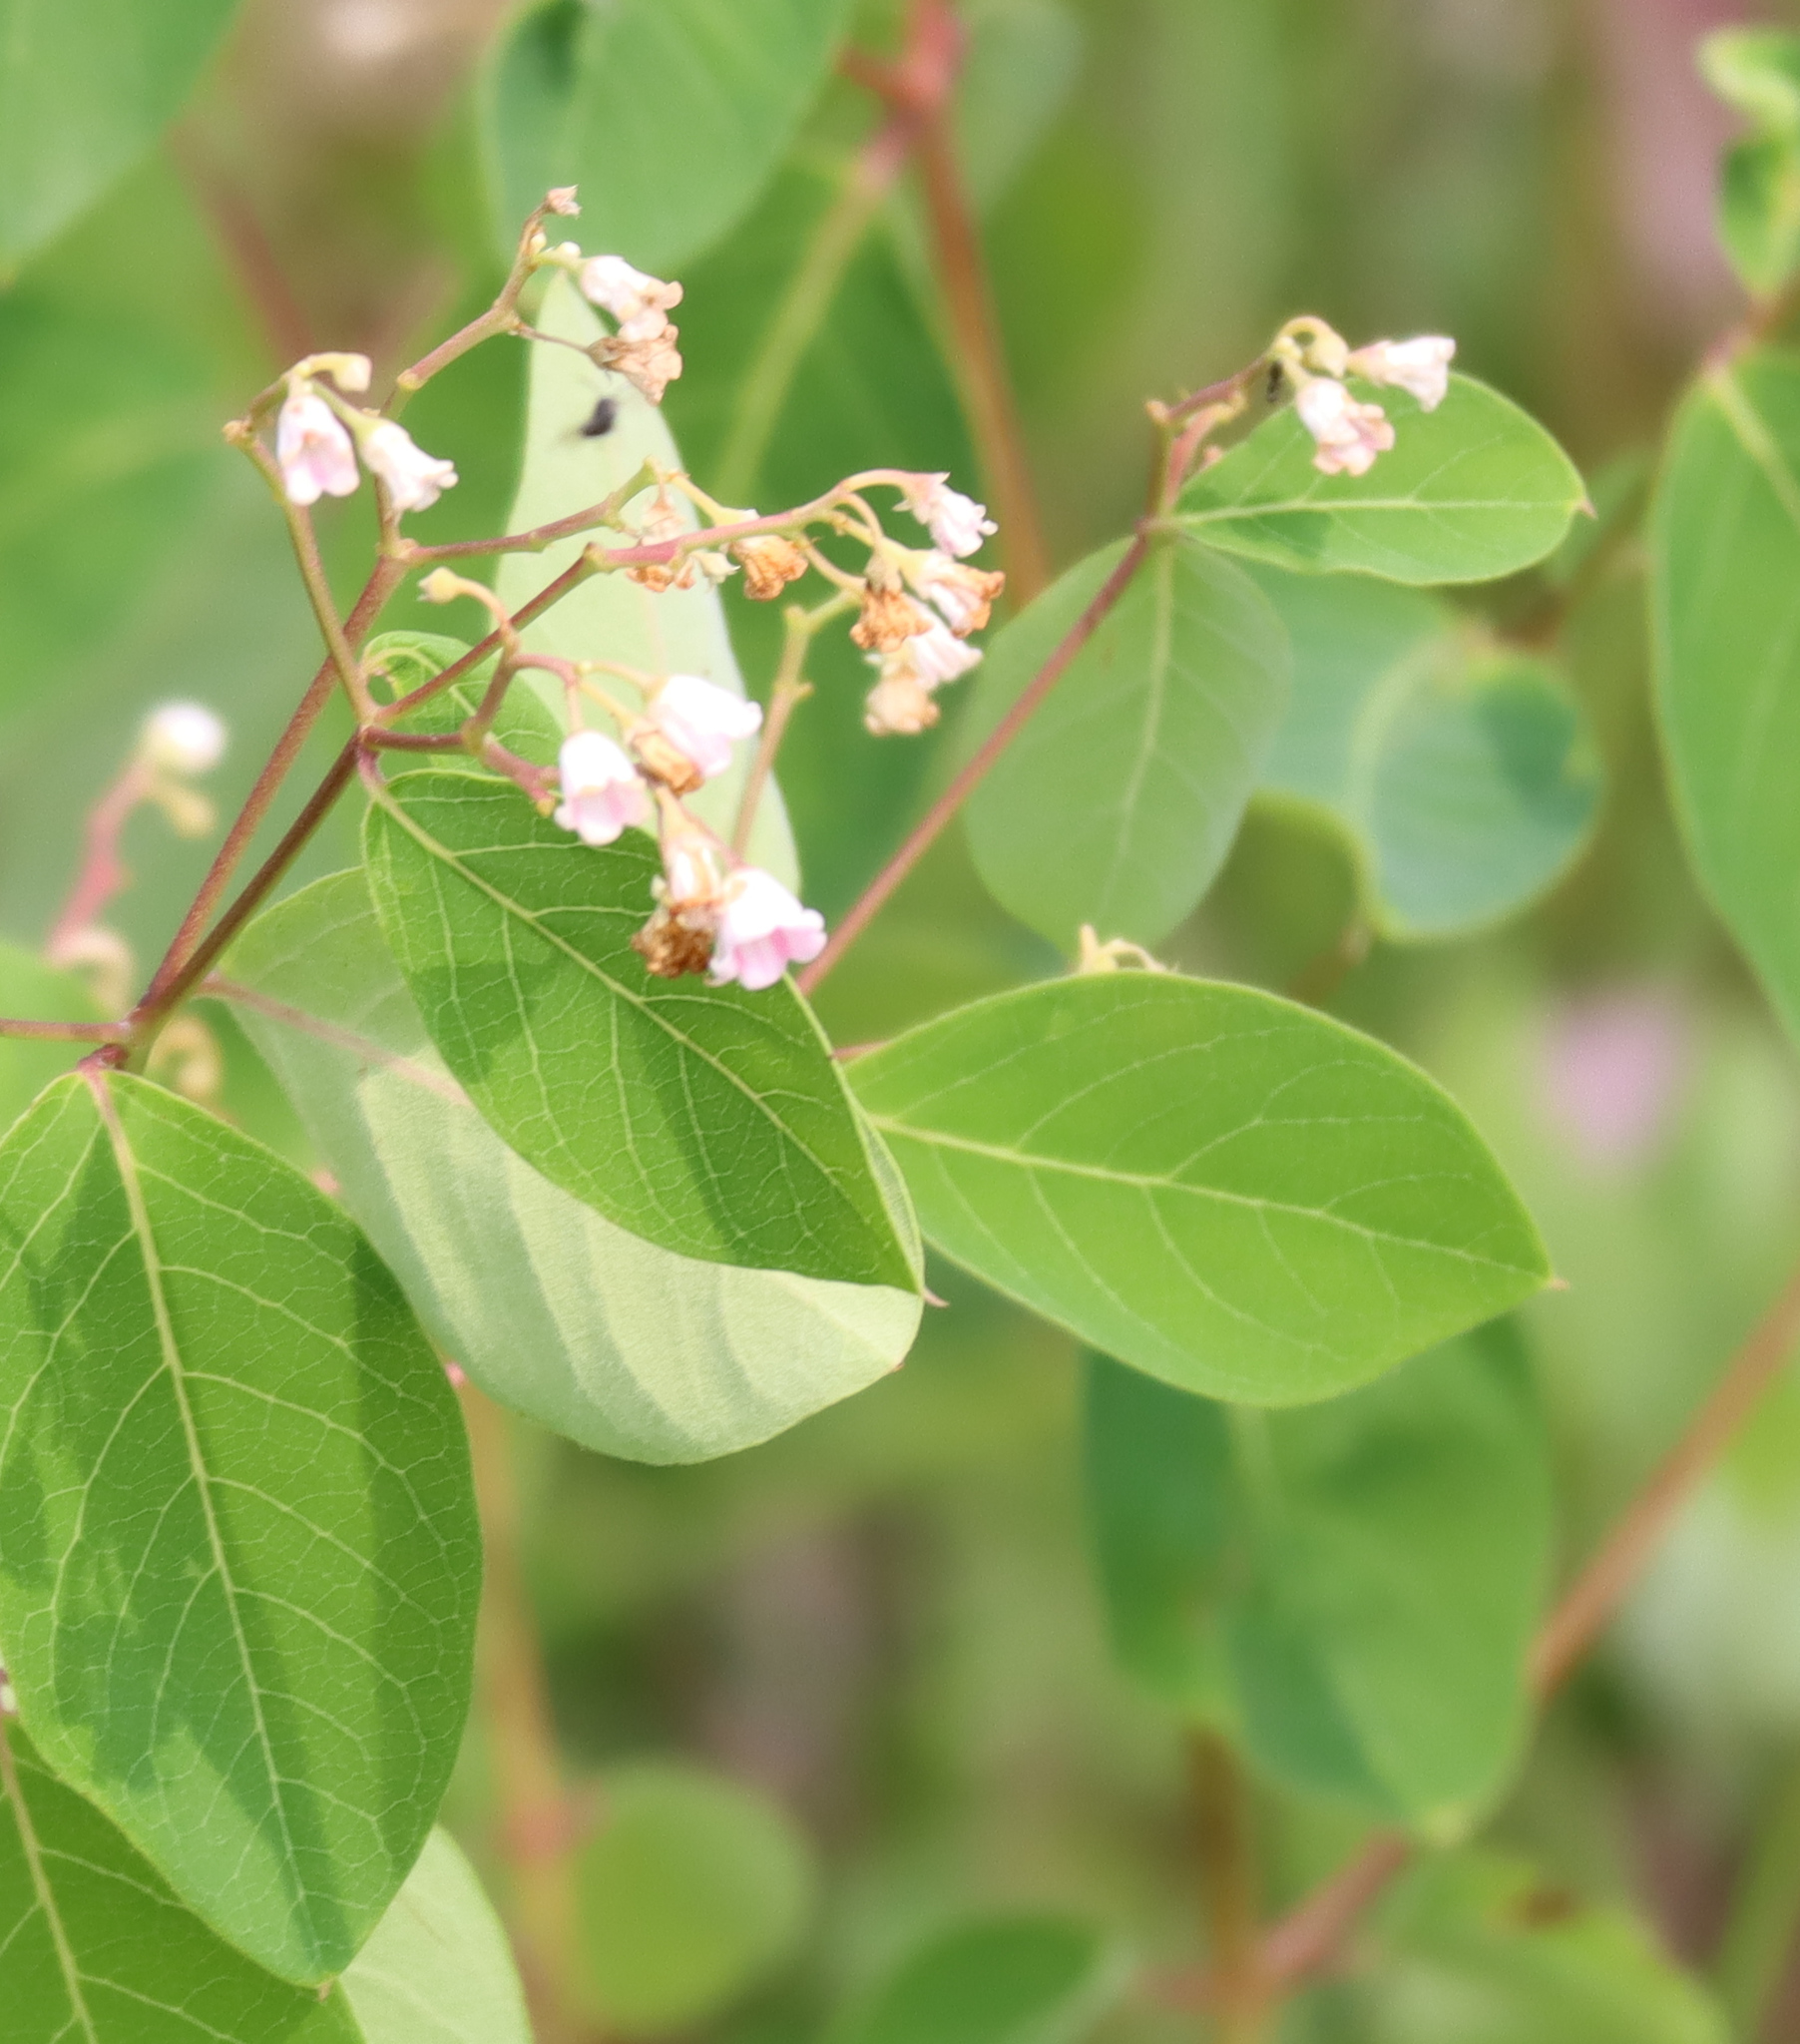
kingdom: Plantae
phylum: Tracheophyta
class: Magnoliopsida
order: Gentianales
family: Apocynaceae
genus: Apocynum
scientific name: Apocynum androsaemifolium
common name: Spreading dogbane
